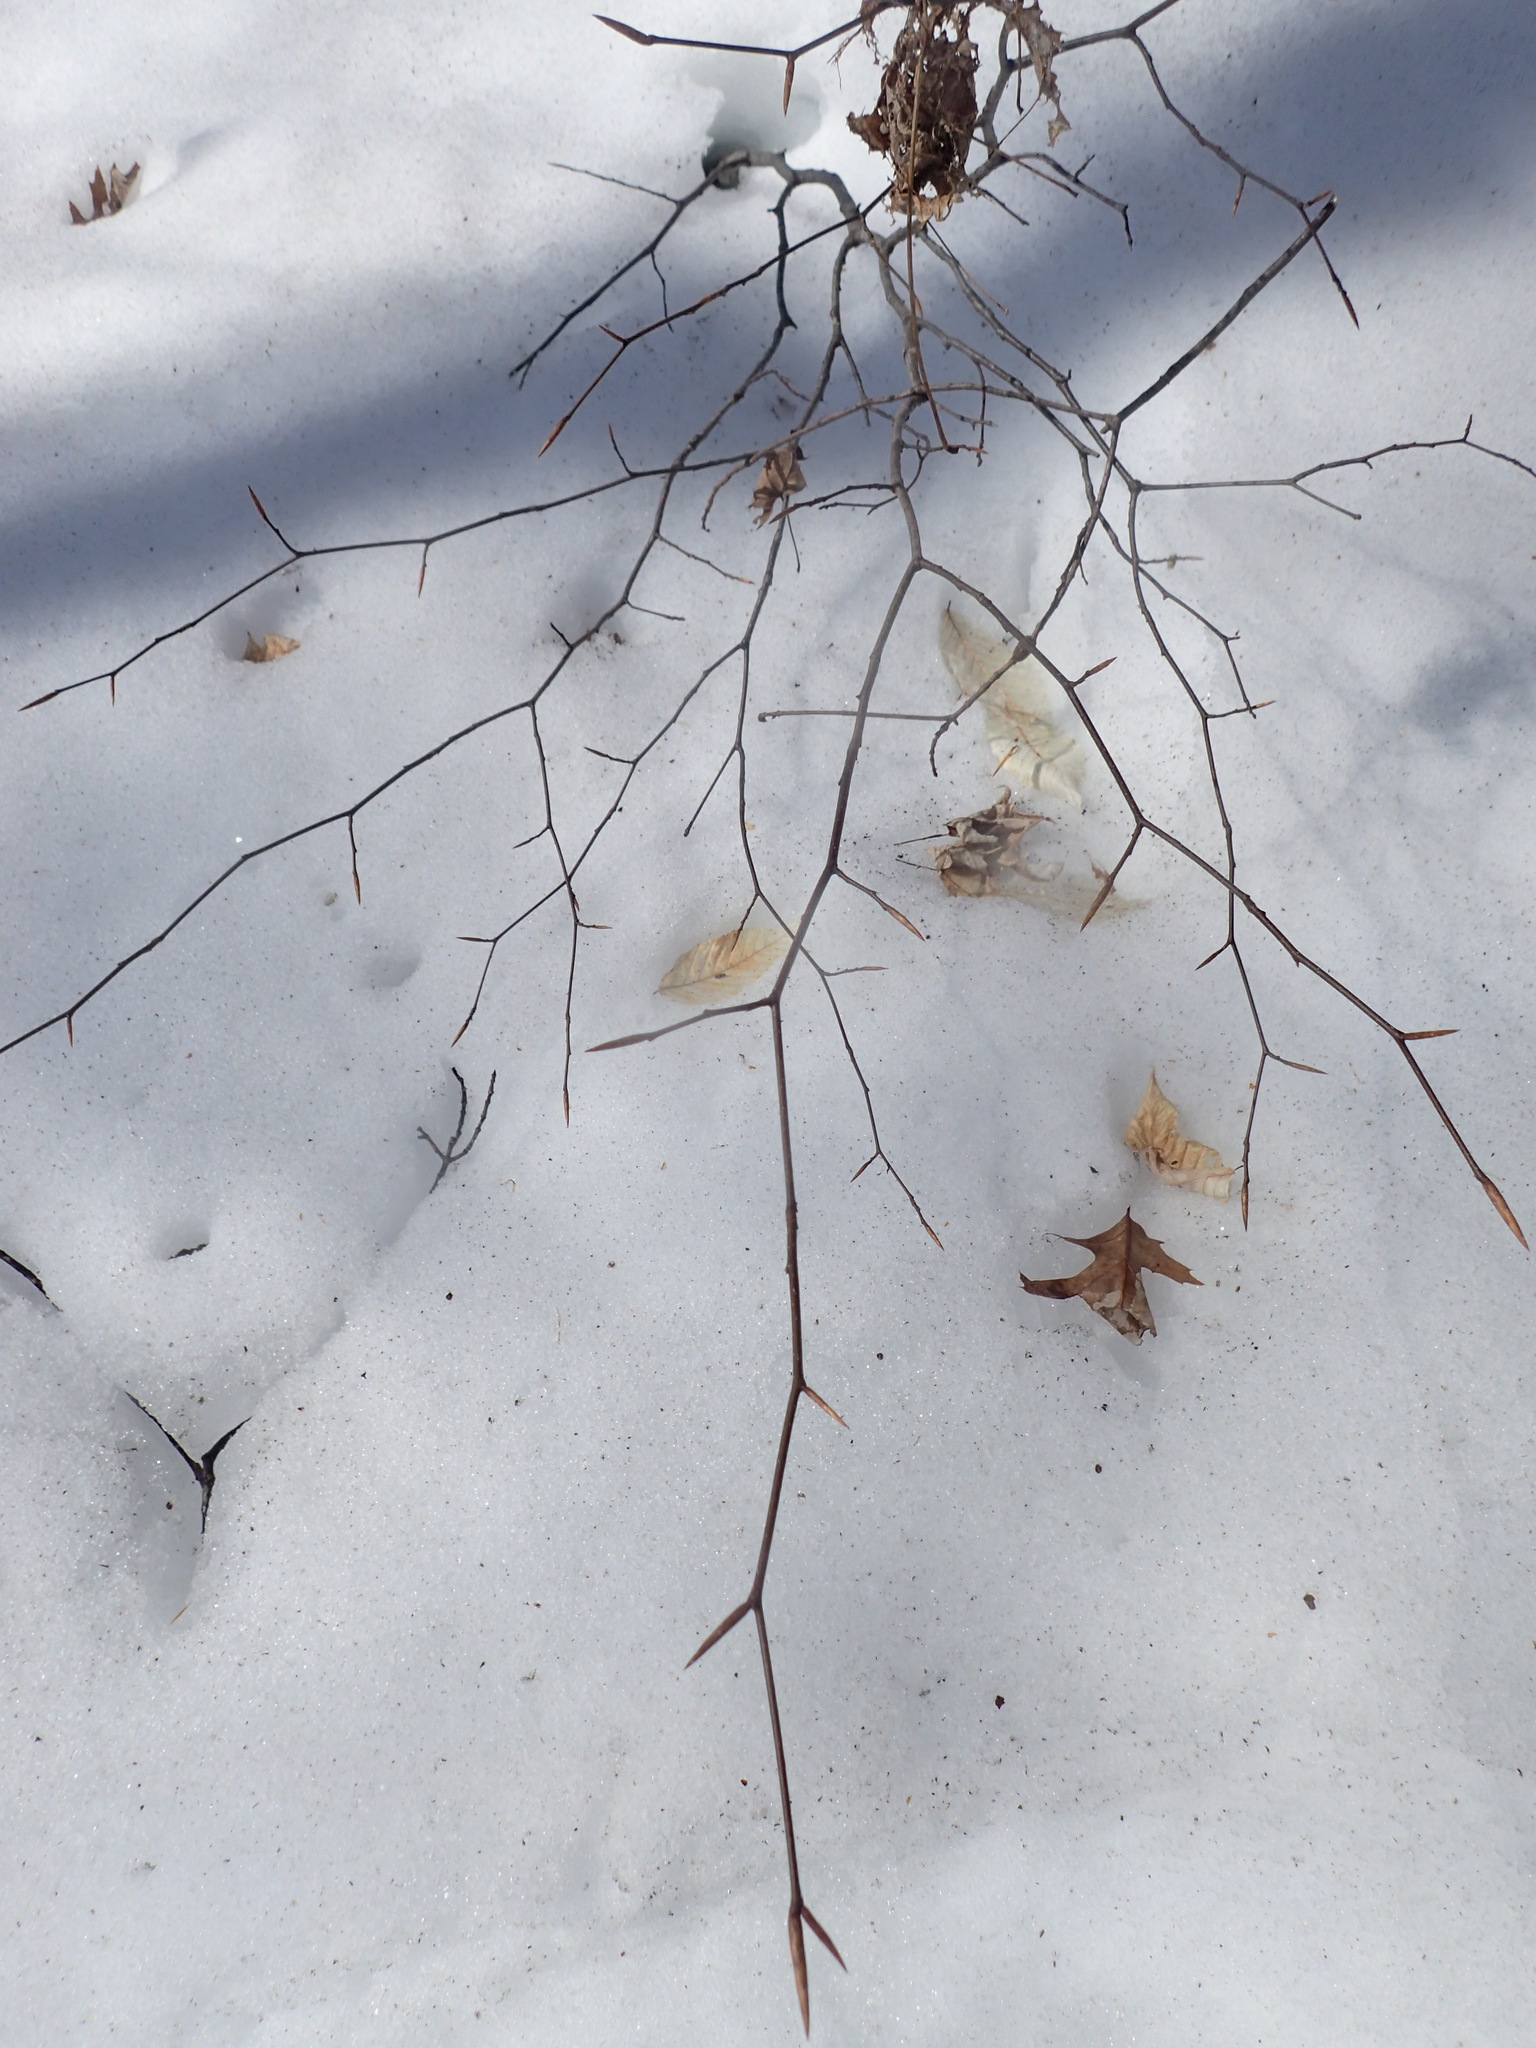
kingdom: Plantae
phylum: Tracheophyta
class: Magnoliopsida
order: Fagales
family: Fagaceae
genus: Fagus
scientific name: Fagus grandifolia
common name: American beech
